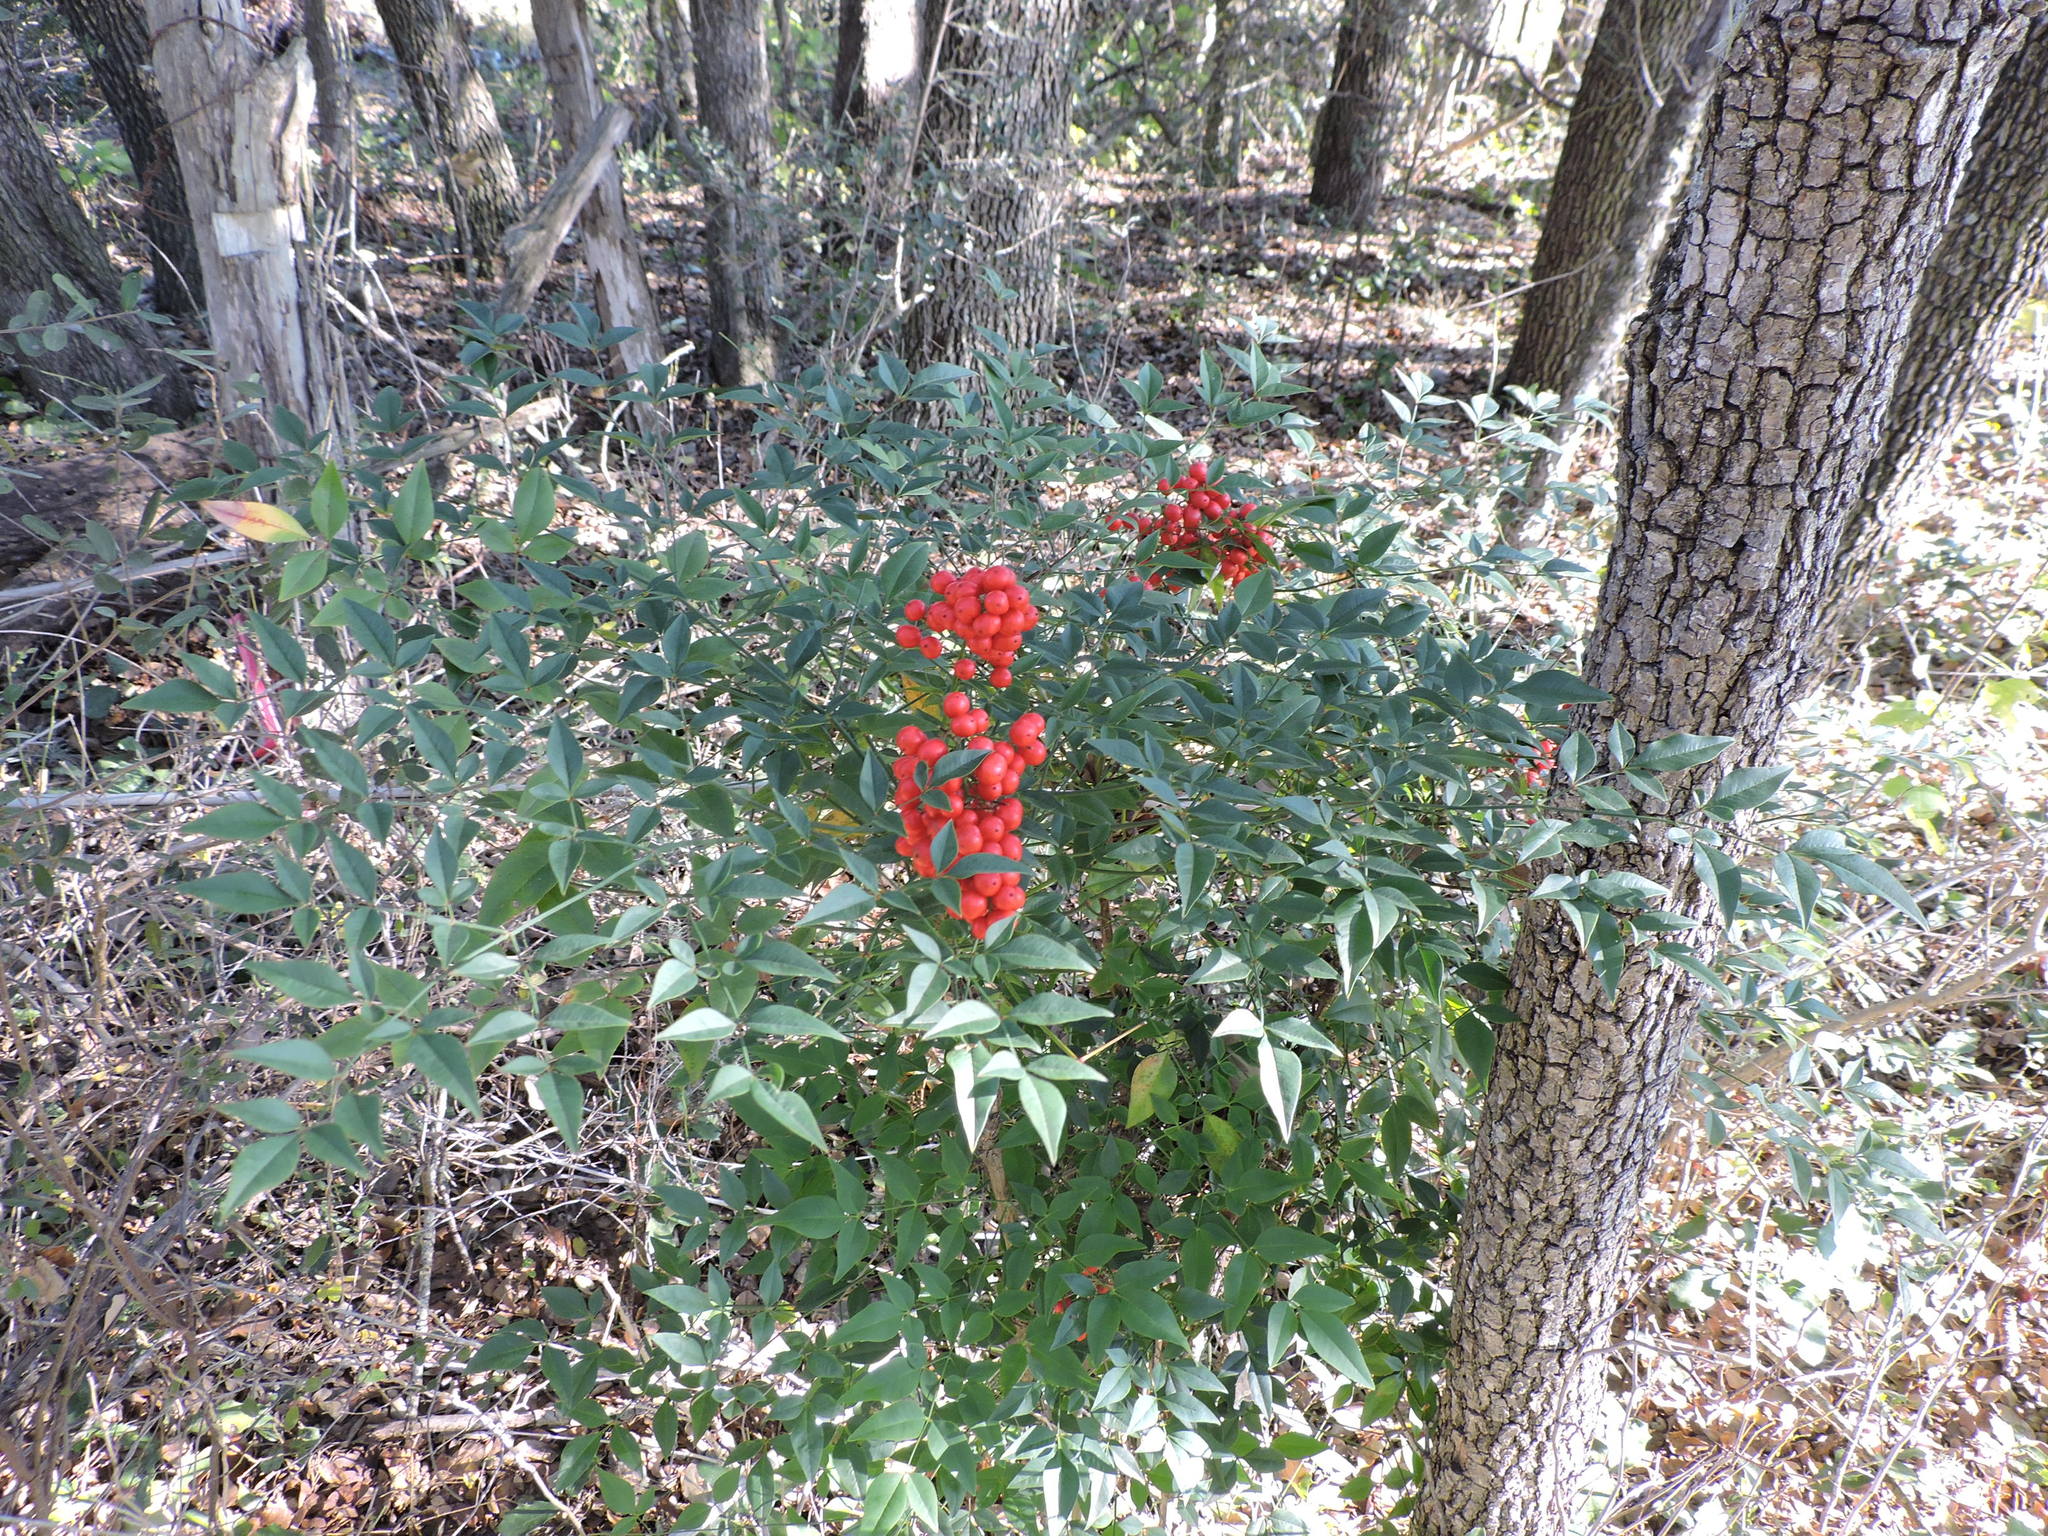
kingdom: Plantae
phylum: Tracheophyta
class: Magnoliopsida
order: Ranunculales
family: Berberidaceae
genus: Nandina
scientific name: Nandina domestica
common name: Sacred bamboo
